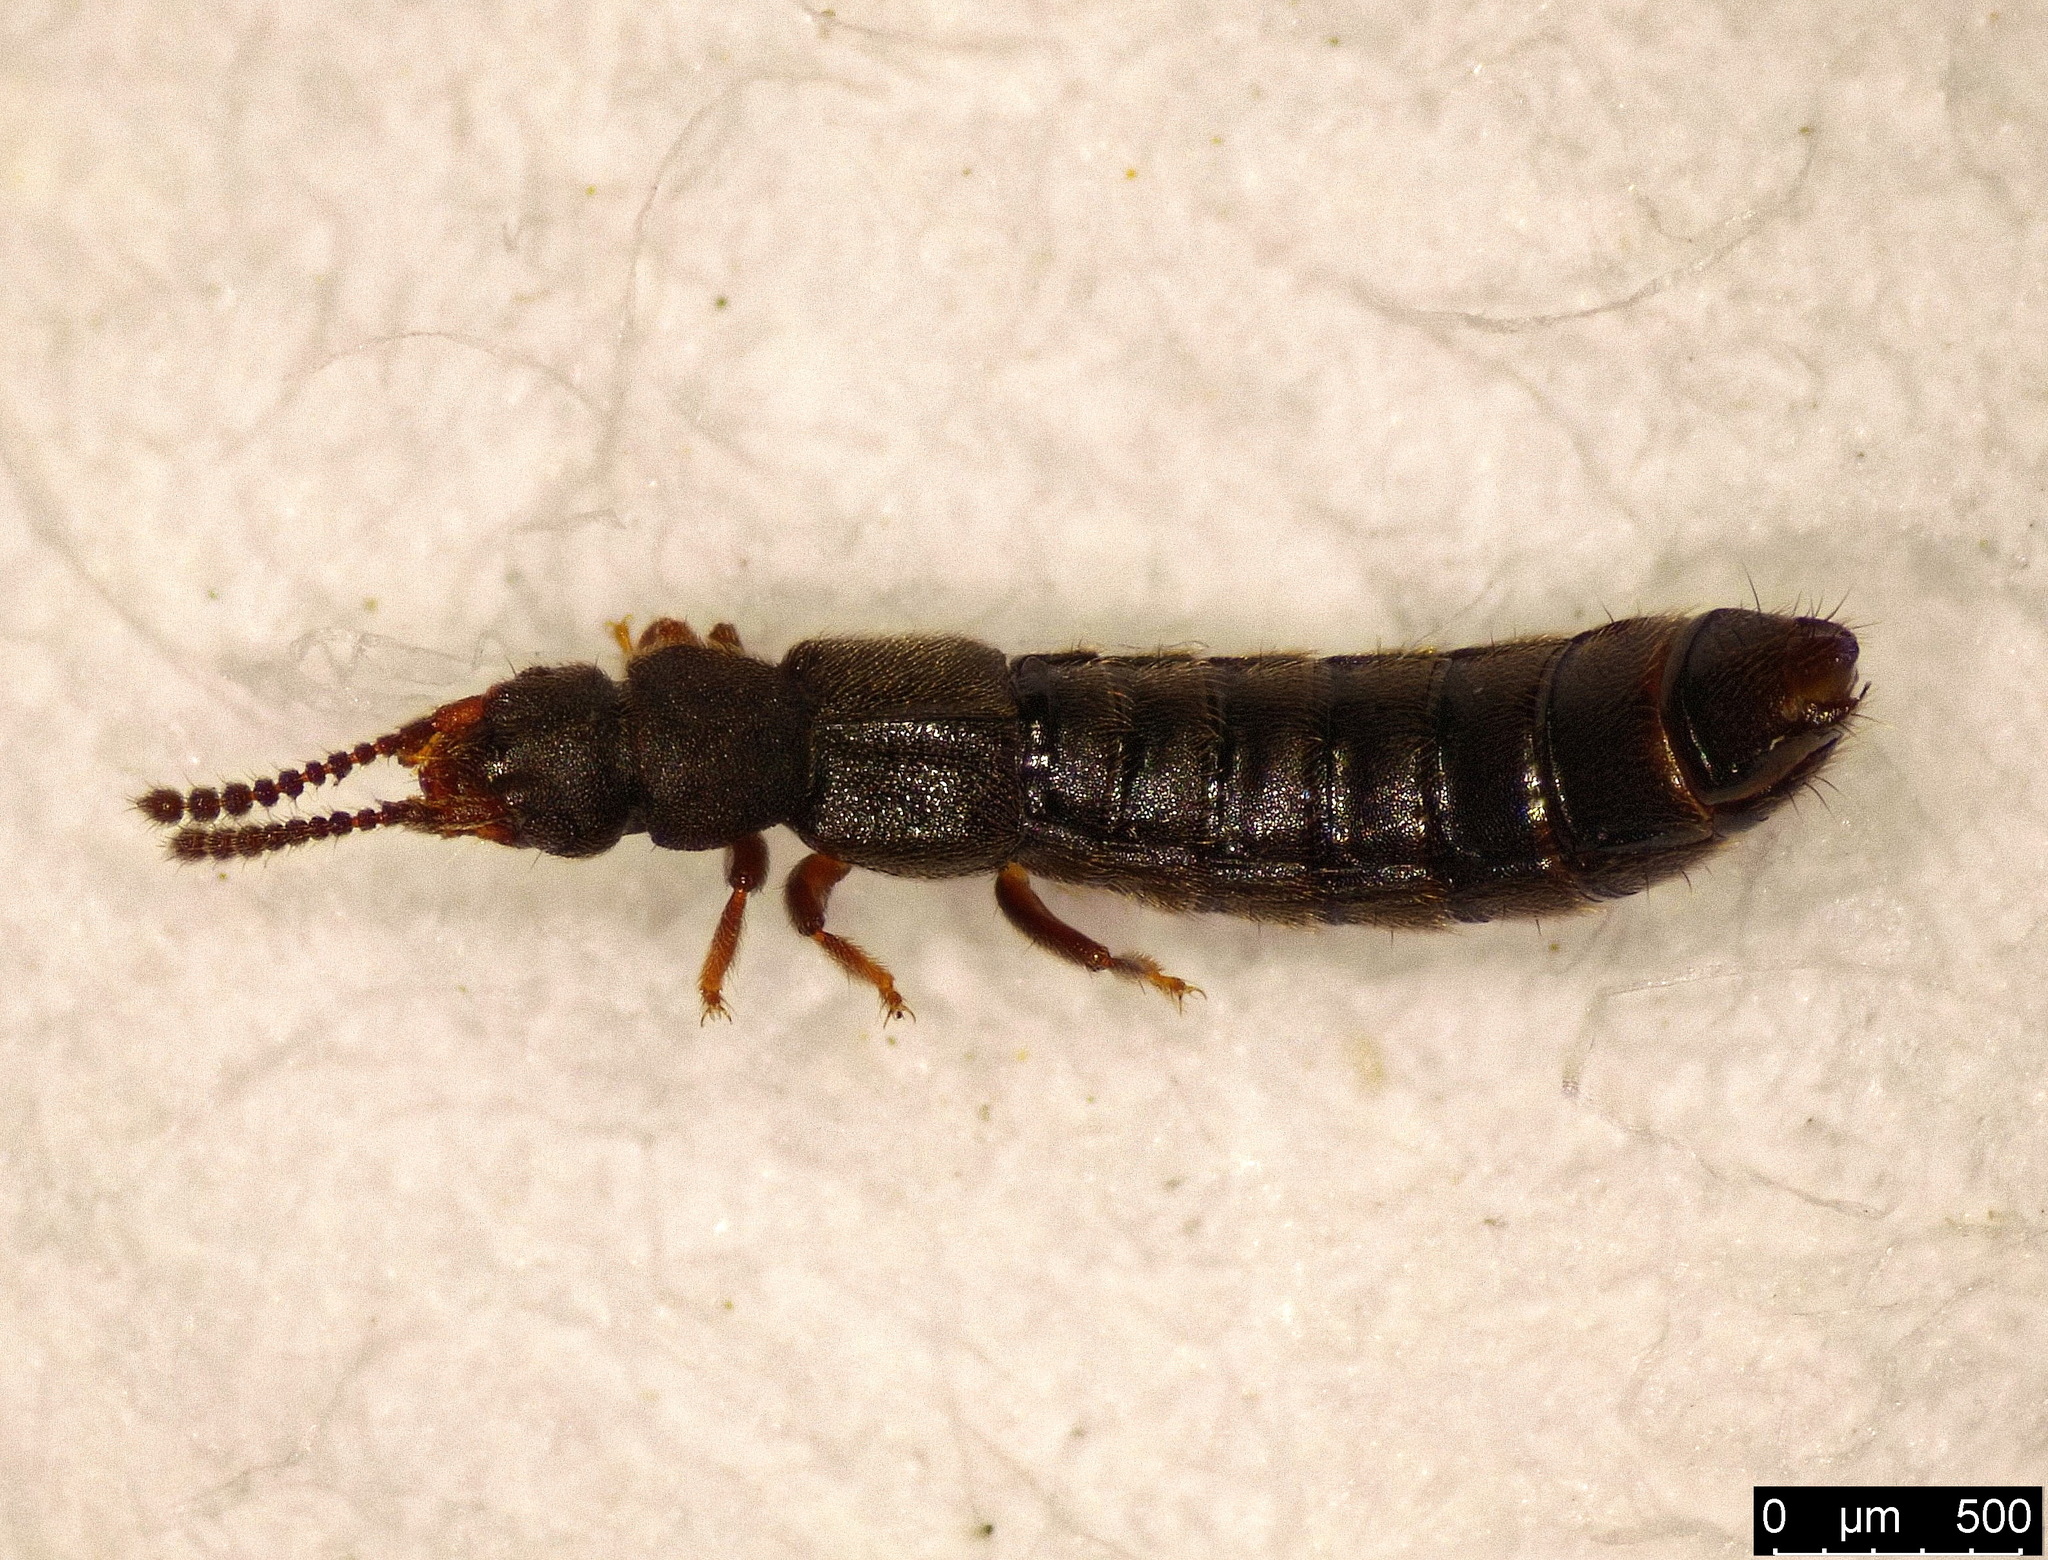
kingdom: Animalia
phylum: Arthropoda
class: Insecta
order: Coleoptera
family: Staphylinidae
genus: Carpelimus
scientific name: Carpelimus elongatulus
